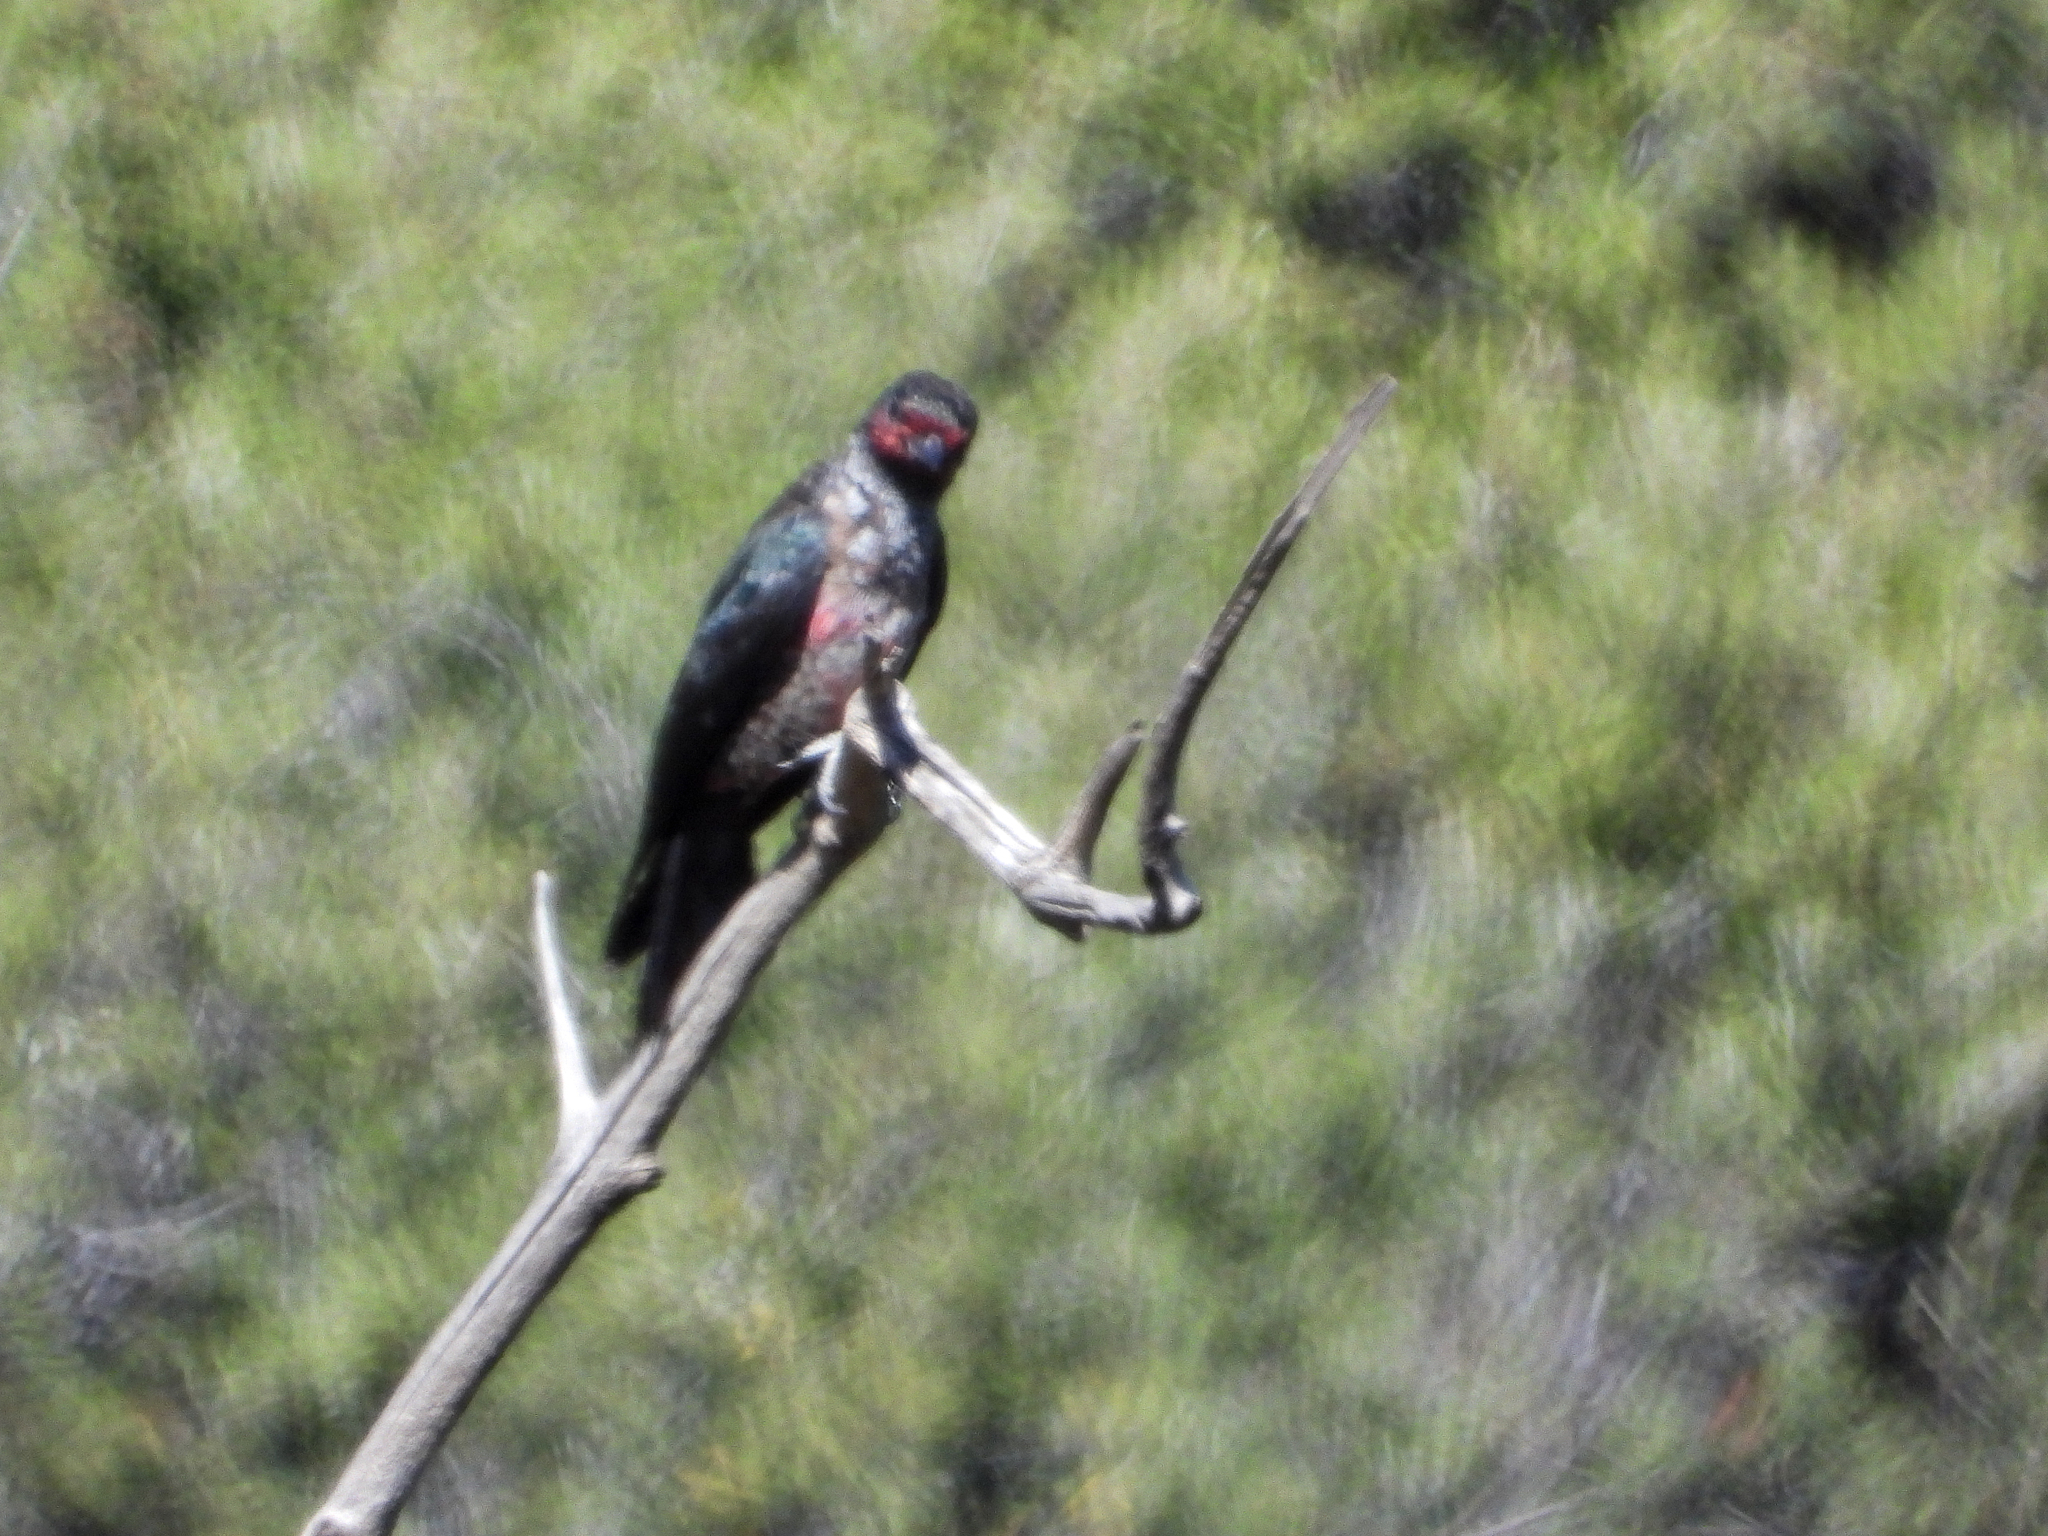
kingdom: Animalia
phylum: Chordata
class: Aves
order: Piciformes
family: Picidae
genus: Melanerpes
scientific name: Melanerpes lewis
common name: Lewis's woodpecker
